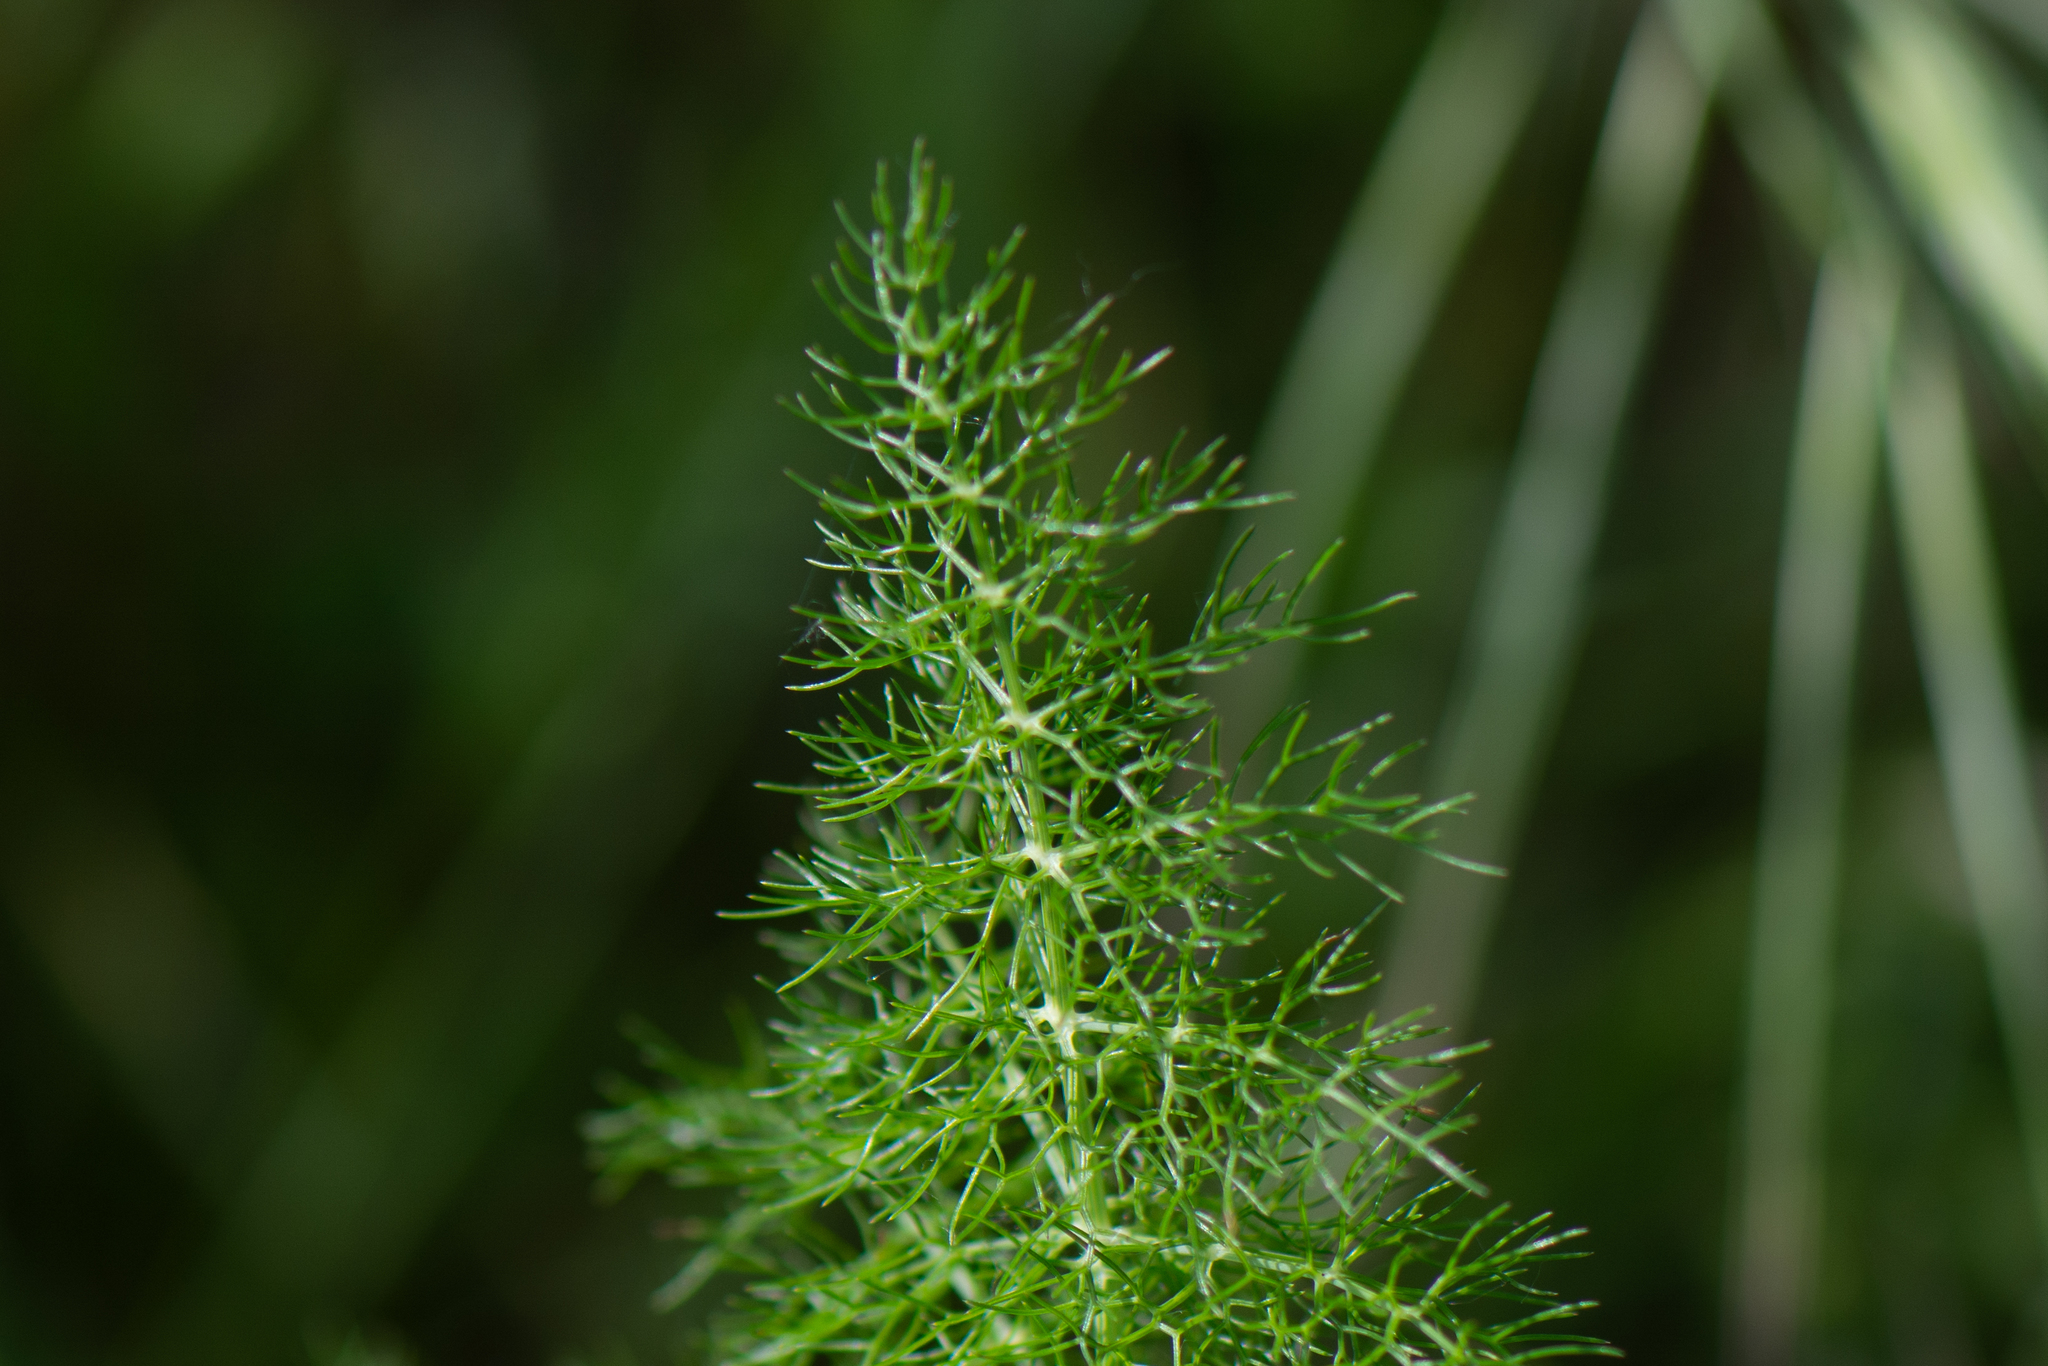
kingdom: Plantae
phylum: Tracheophyta
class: Magnoliopsida
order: Apiales
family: Apiaceae
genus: Foeniculum
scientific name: Foeniculum vulgare
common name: Fennel
